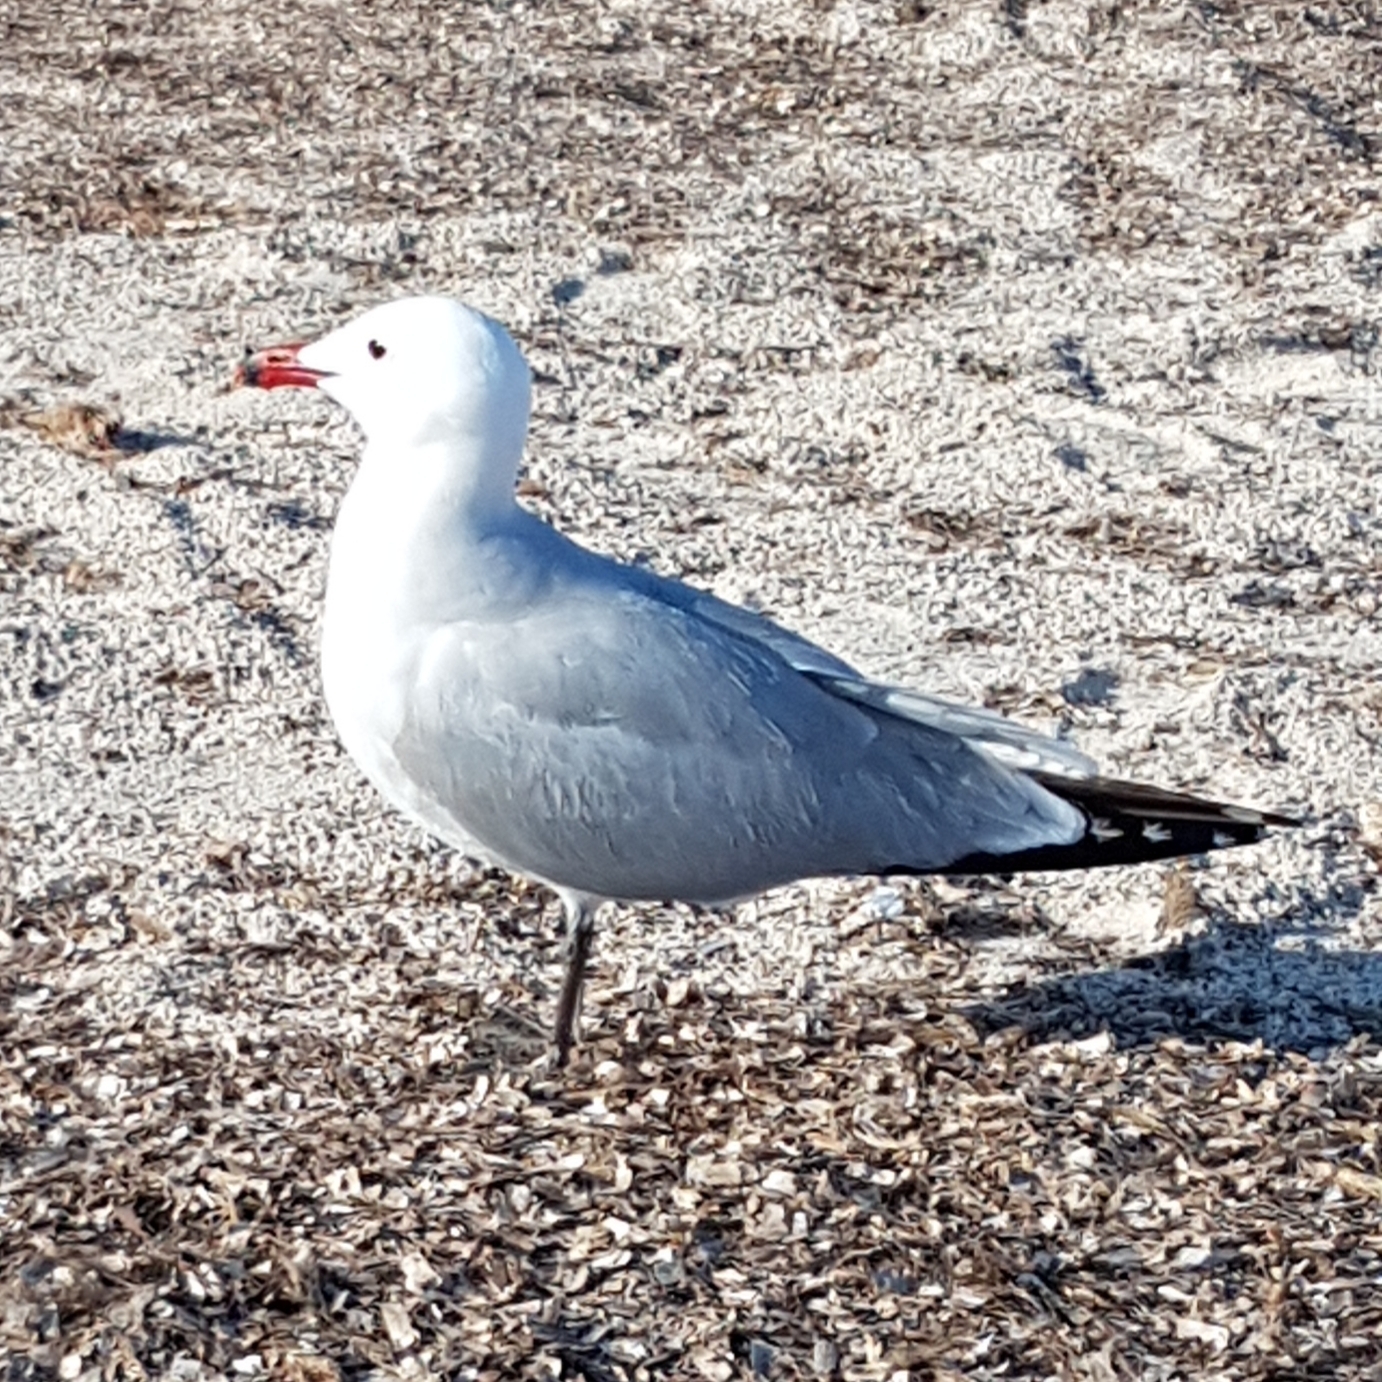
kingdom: Animalia
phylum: Chordata
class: Aves
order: Charadriiformes
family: Laridae
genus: Ichthyaetus
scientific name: Ichthyaetus audouinii
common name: Audouin's gull
